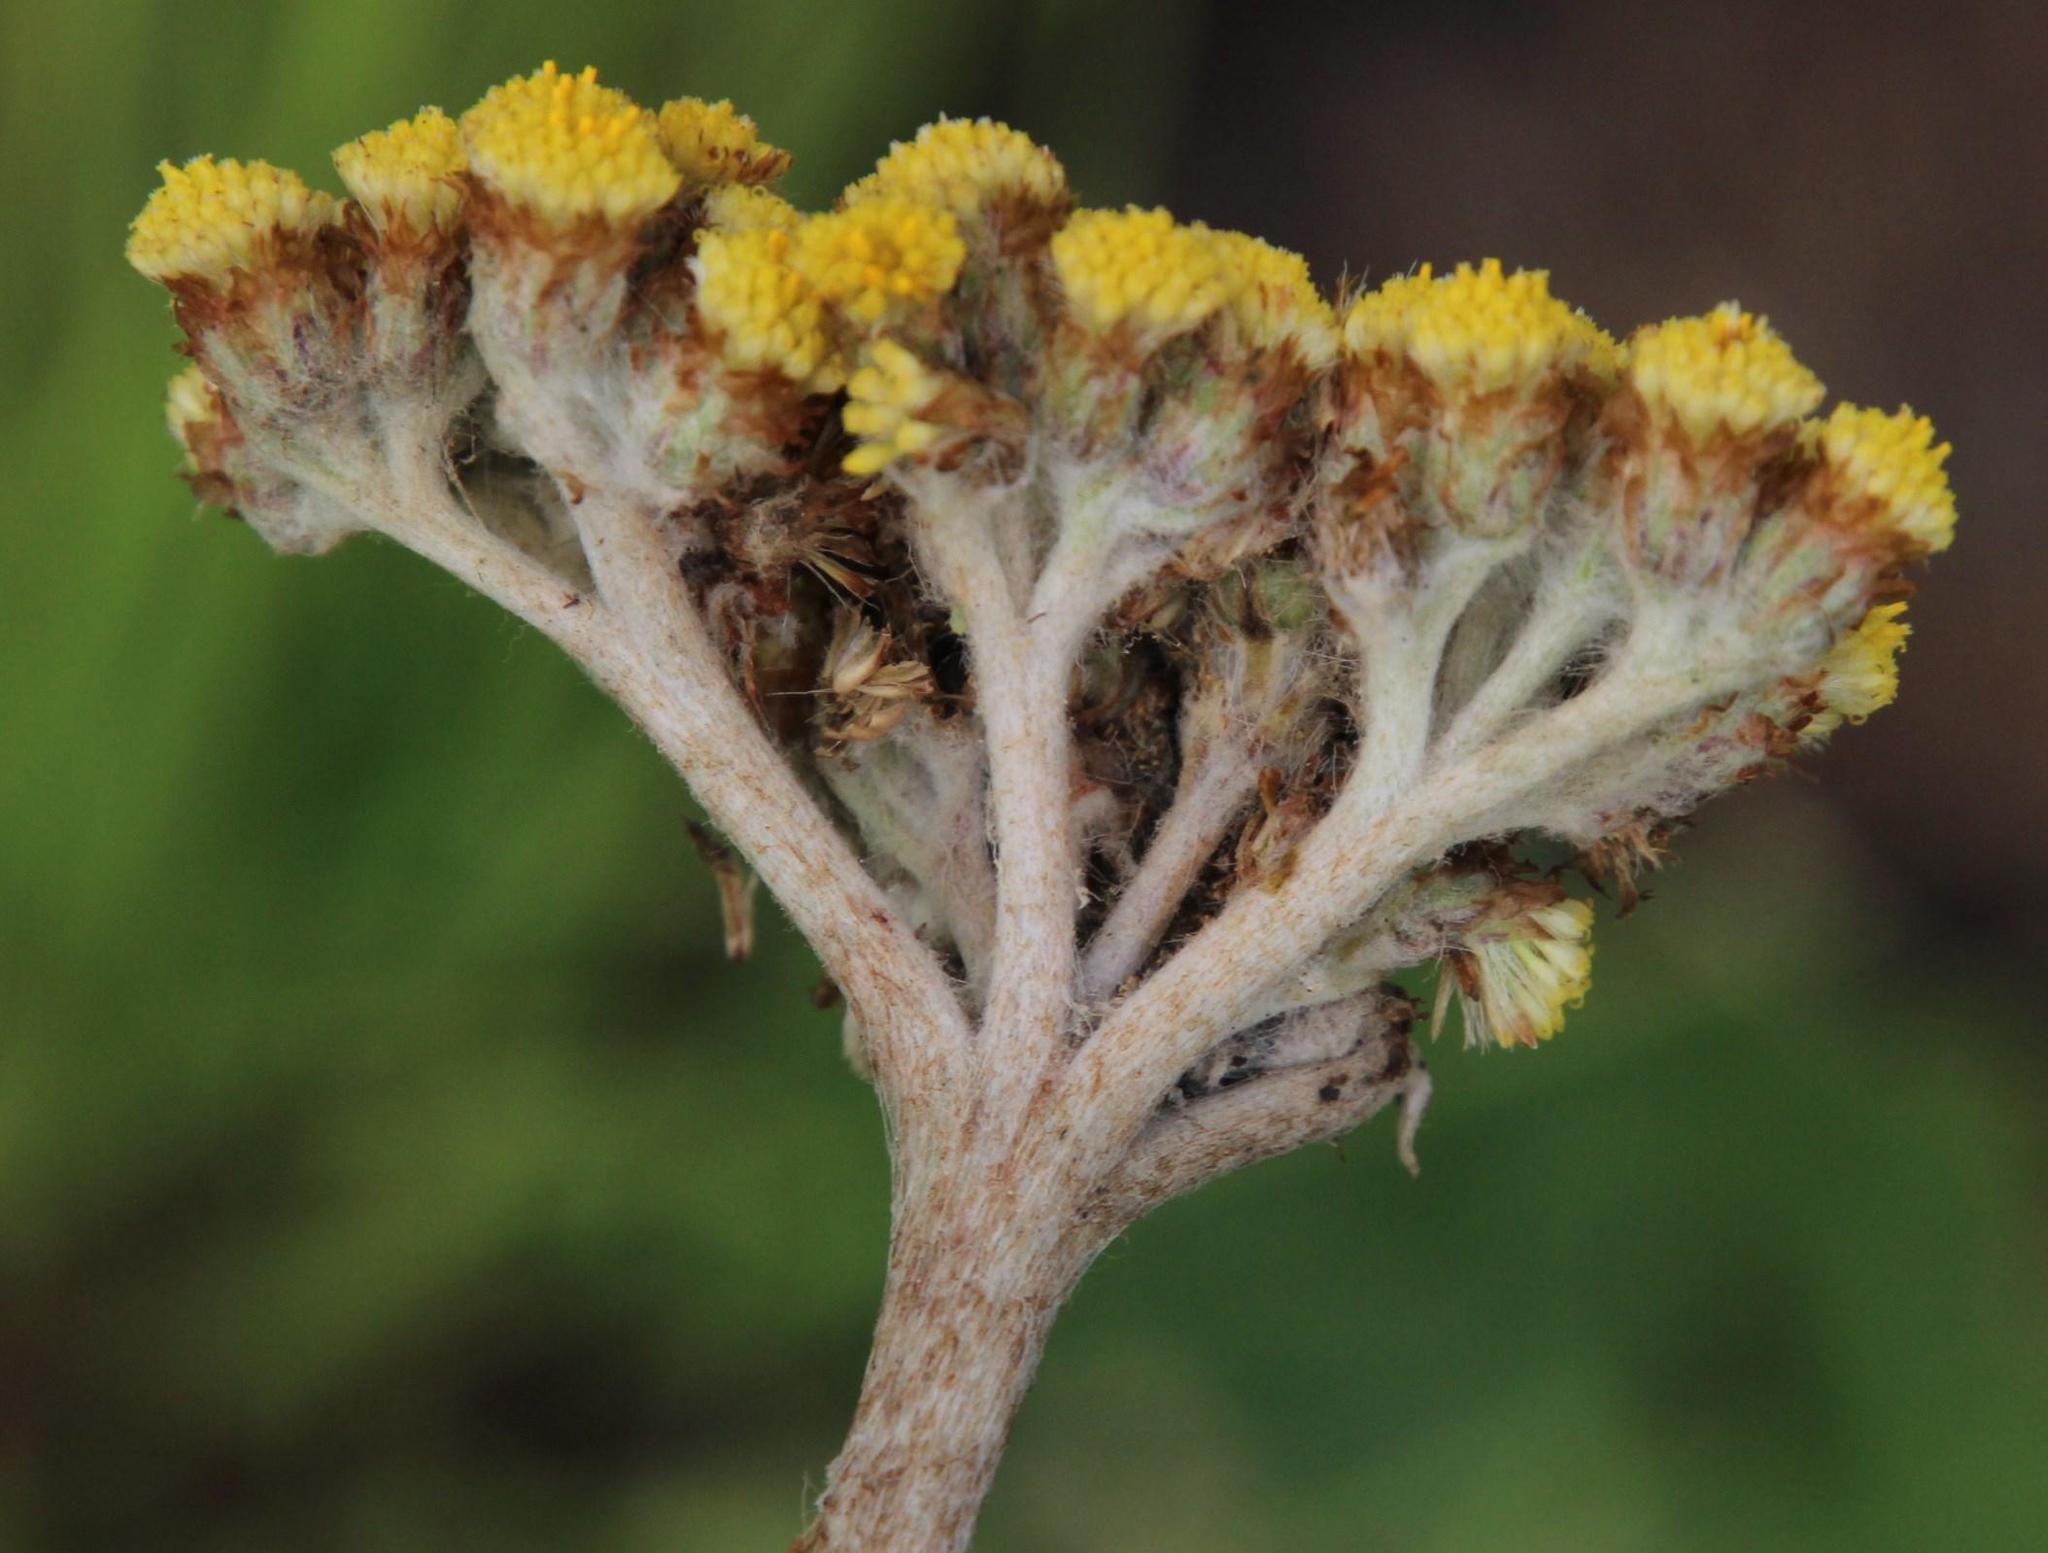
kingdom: Plantae
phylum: Tracheophyta
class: Magnoliopsida
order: Asterales
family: Asteraceae
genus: Helichrysum
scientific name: Helichrysum nudifolium
